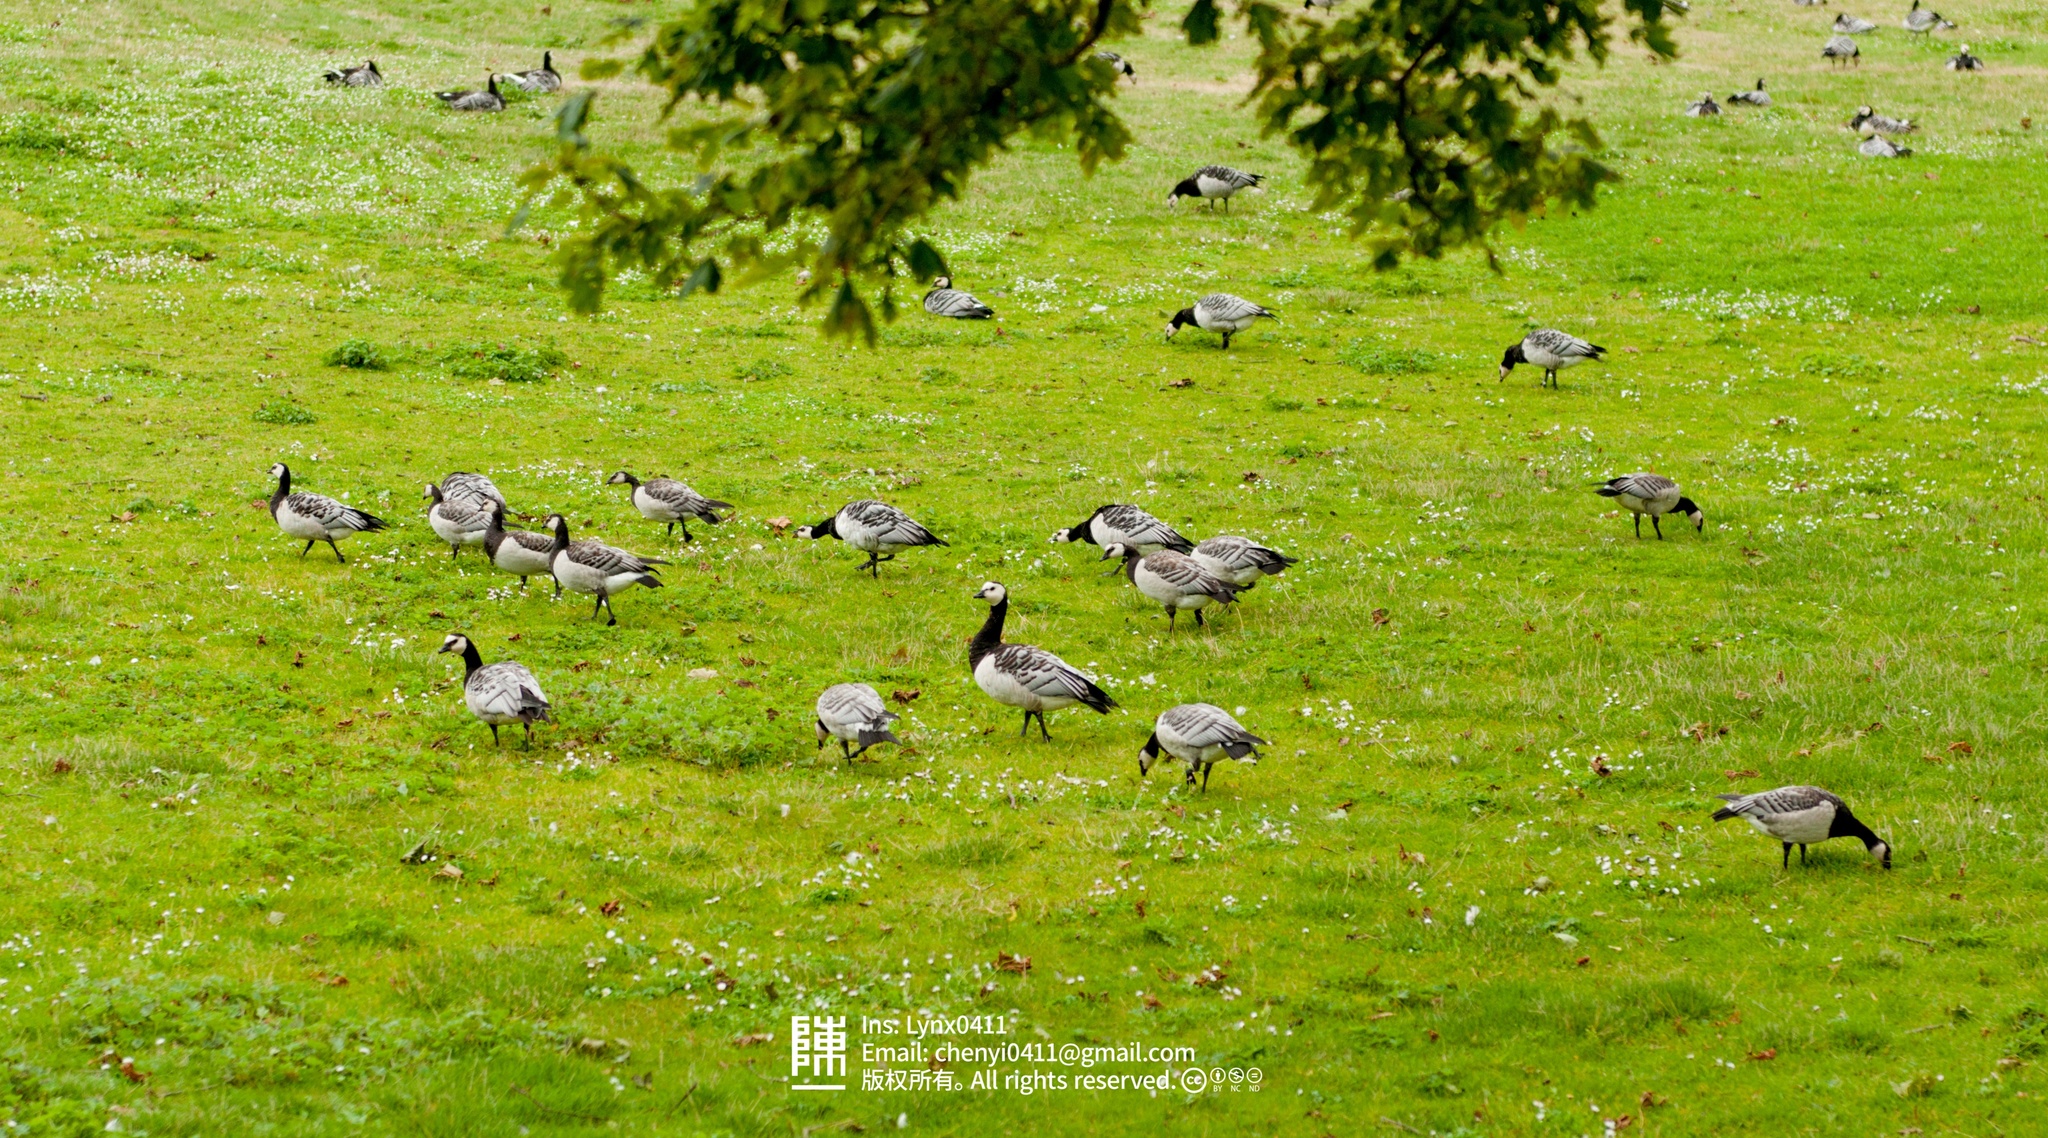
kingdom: Animalia
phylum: Chordata
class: Aves
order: Anseriformes
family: Anatidae
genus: Branta
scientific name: Branta leucopsis
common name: Barnacle goose
